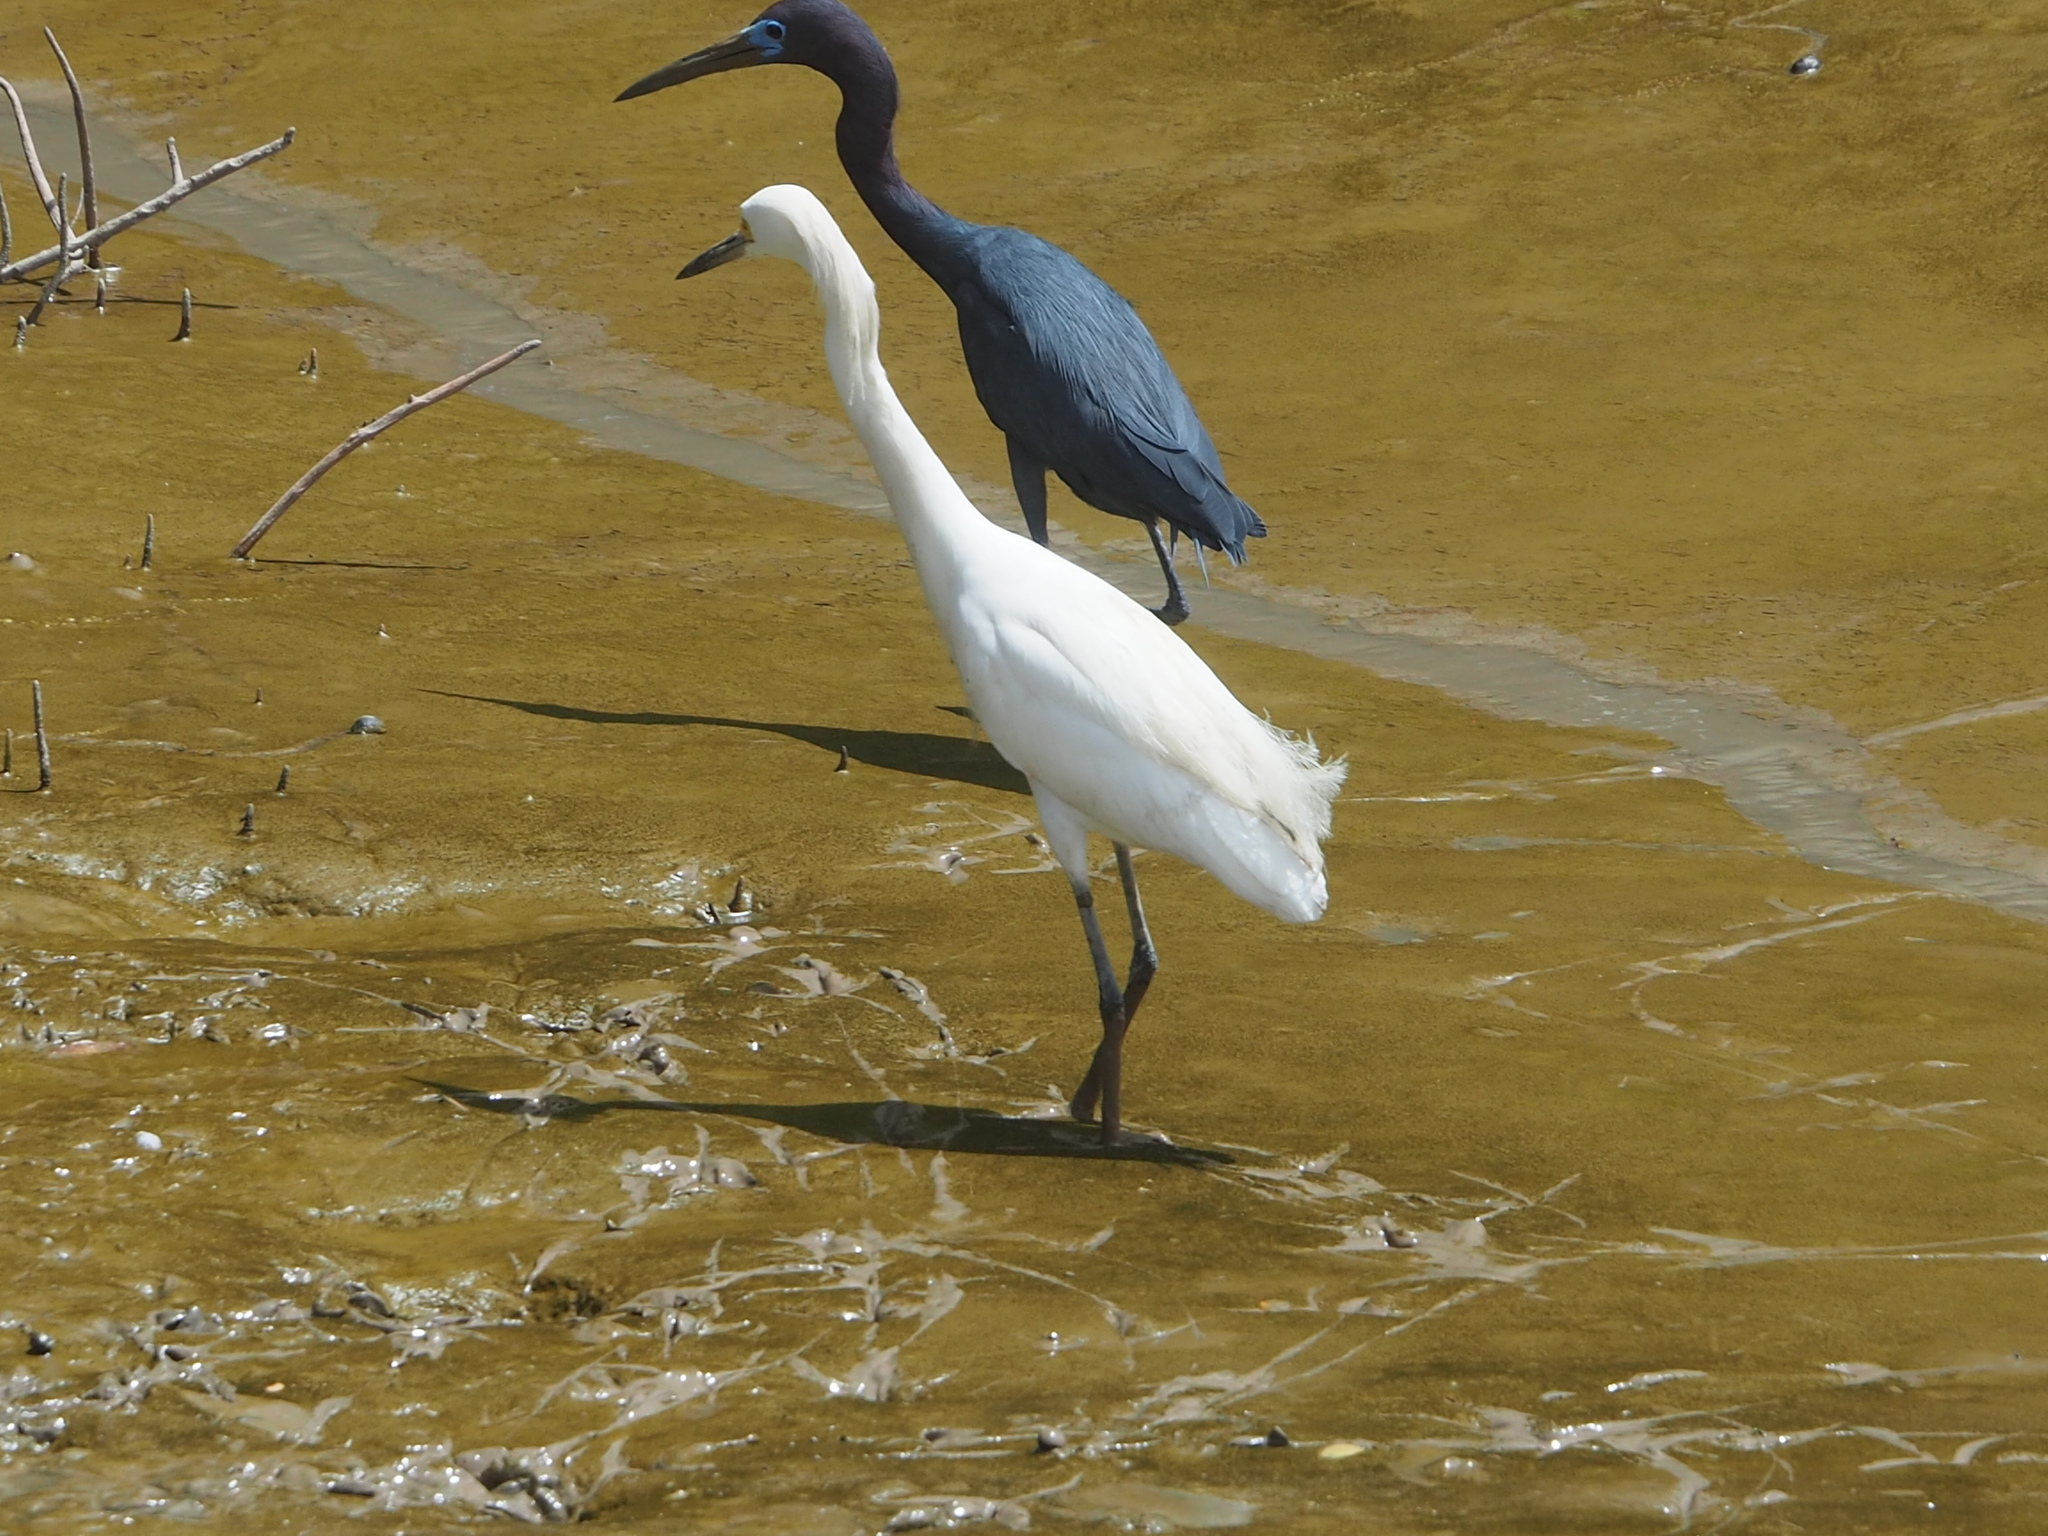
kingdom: Animalia
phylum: Chordata
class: Aves
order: Pelecaniformes
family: Ardeidae
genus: Egretta
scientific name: Egretta thula
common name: Snowy egret
